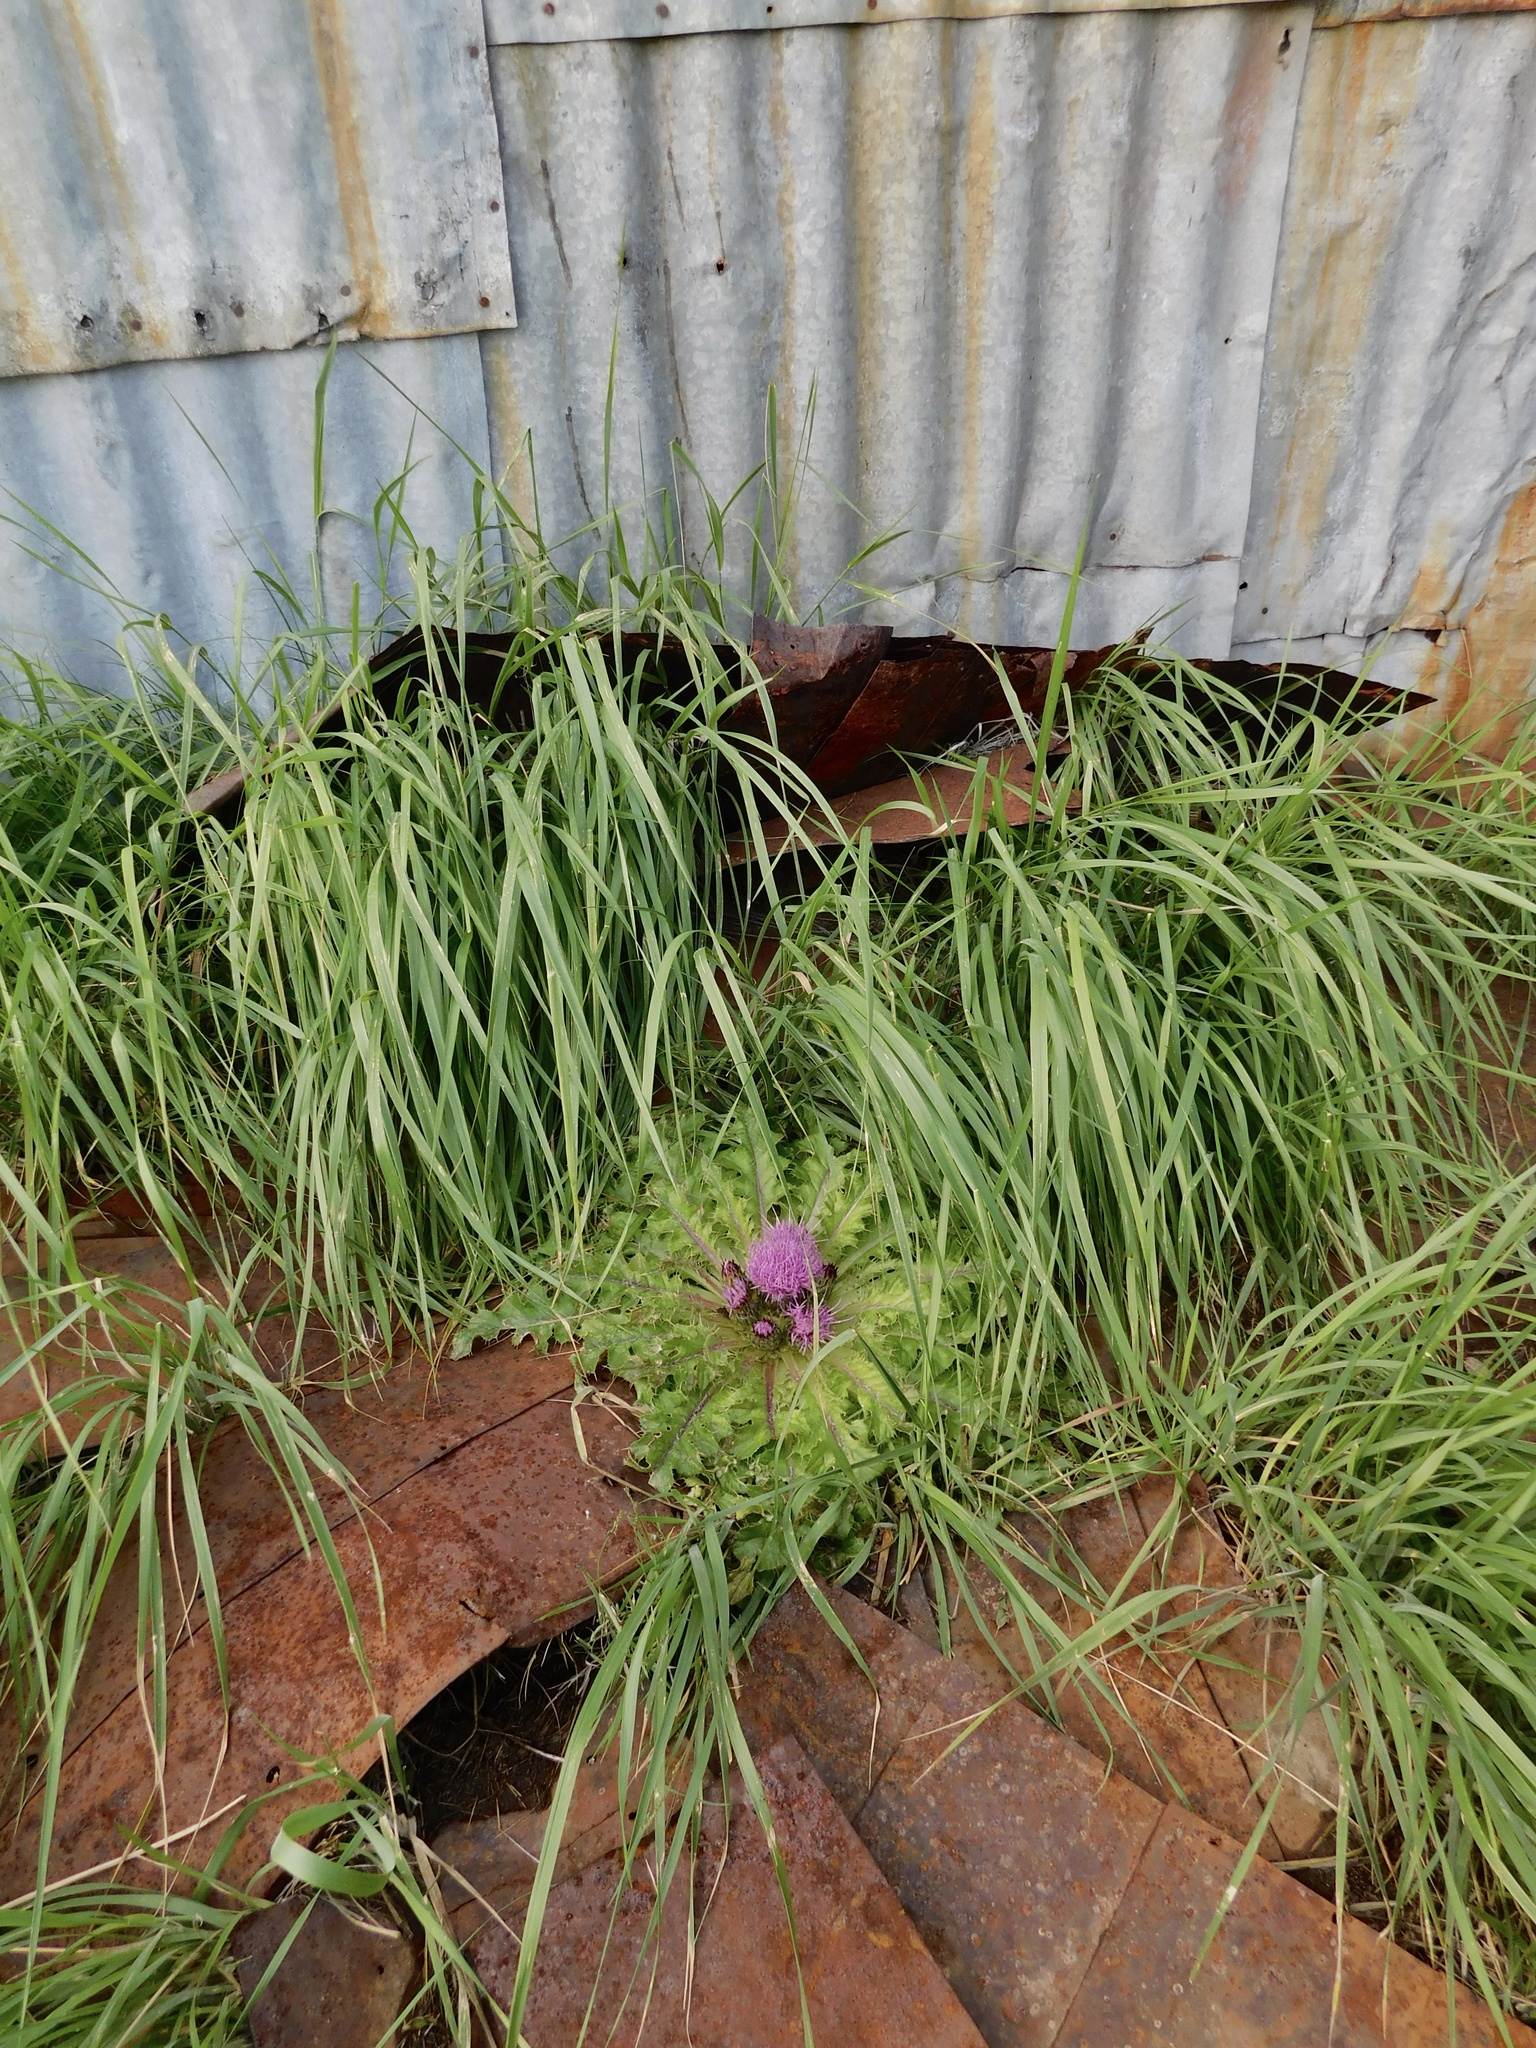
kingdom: Plantae
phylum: Tracheophyta
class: Magnoliopsida
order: Asterales
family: Asteraceae
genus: Cirsium
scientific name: Cirsium scariosum
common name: Meadow thistle
